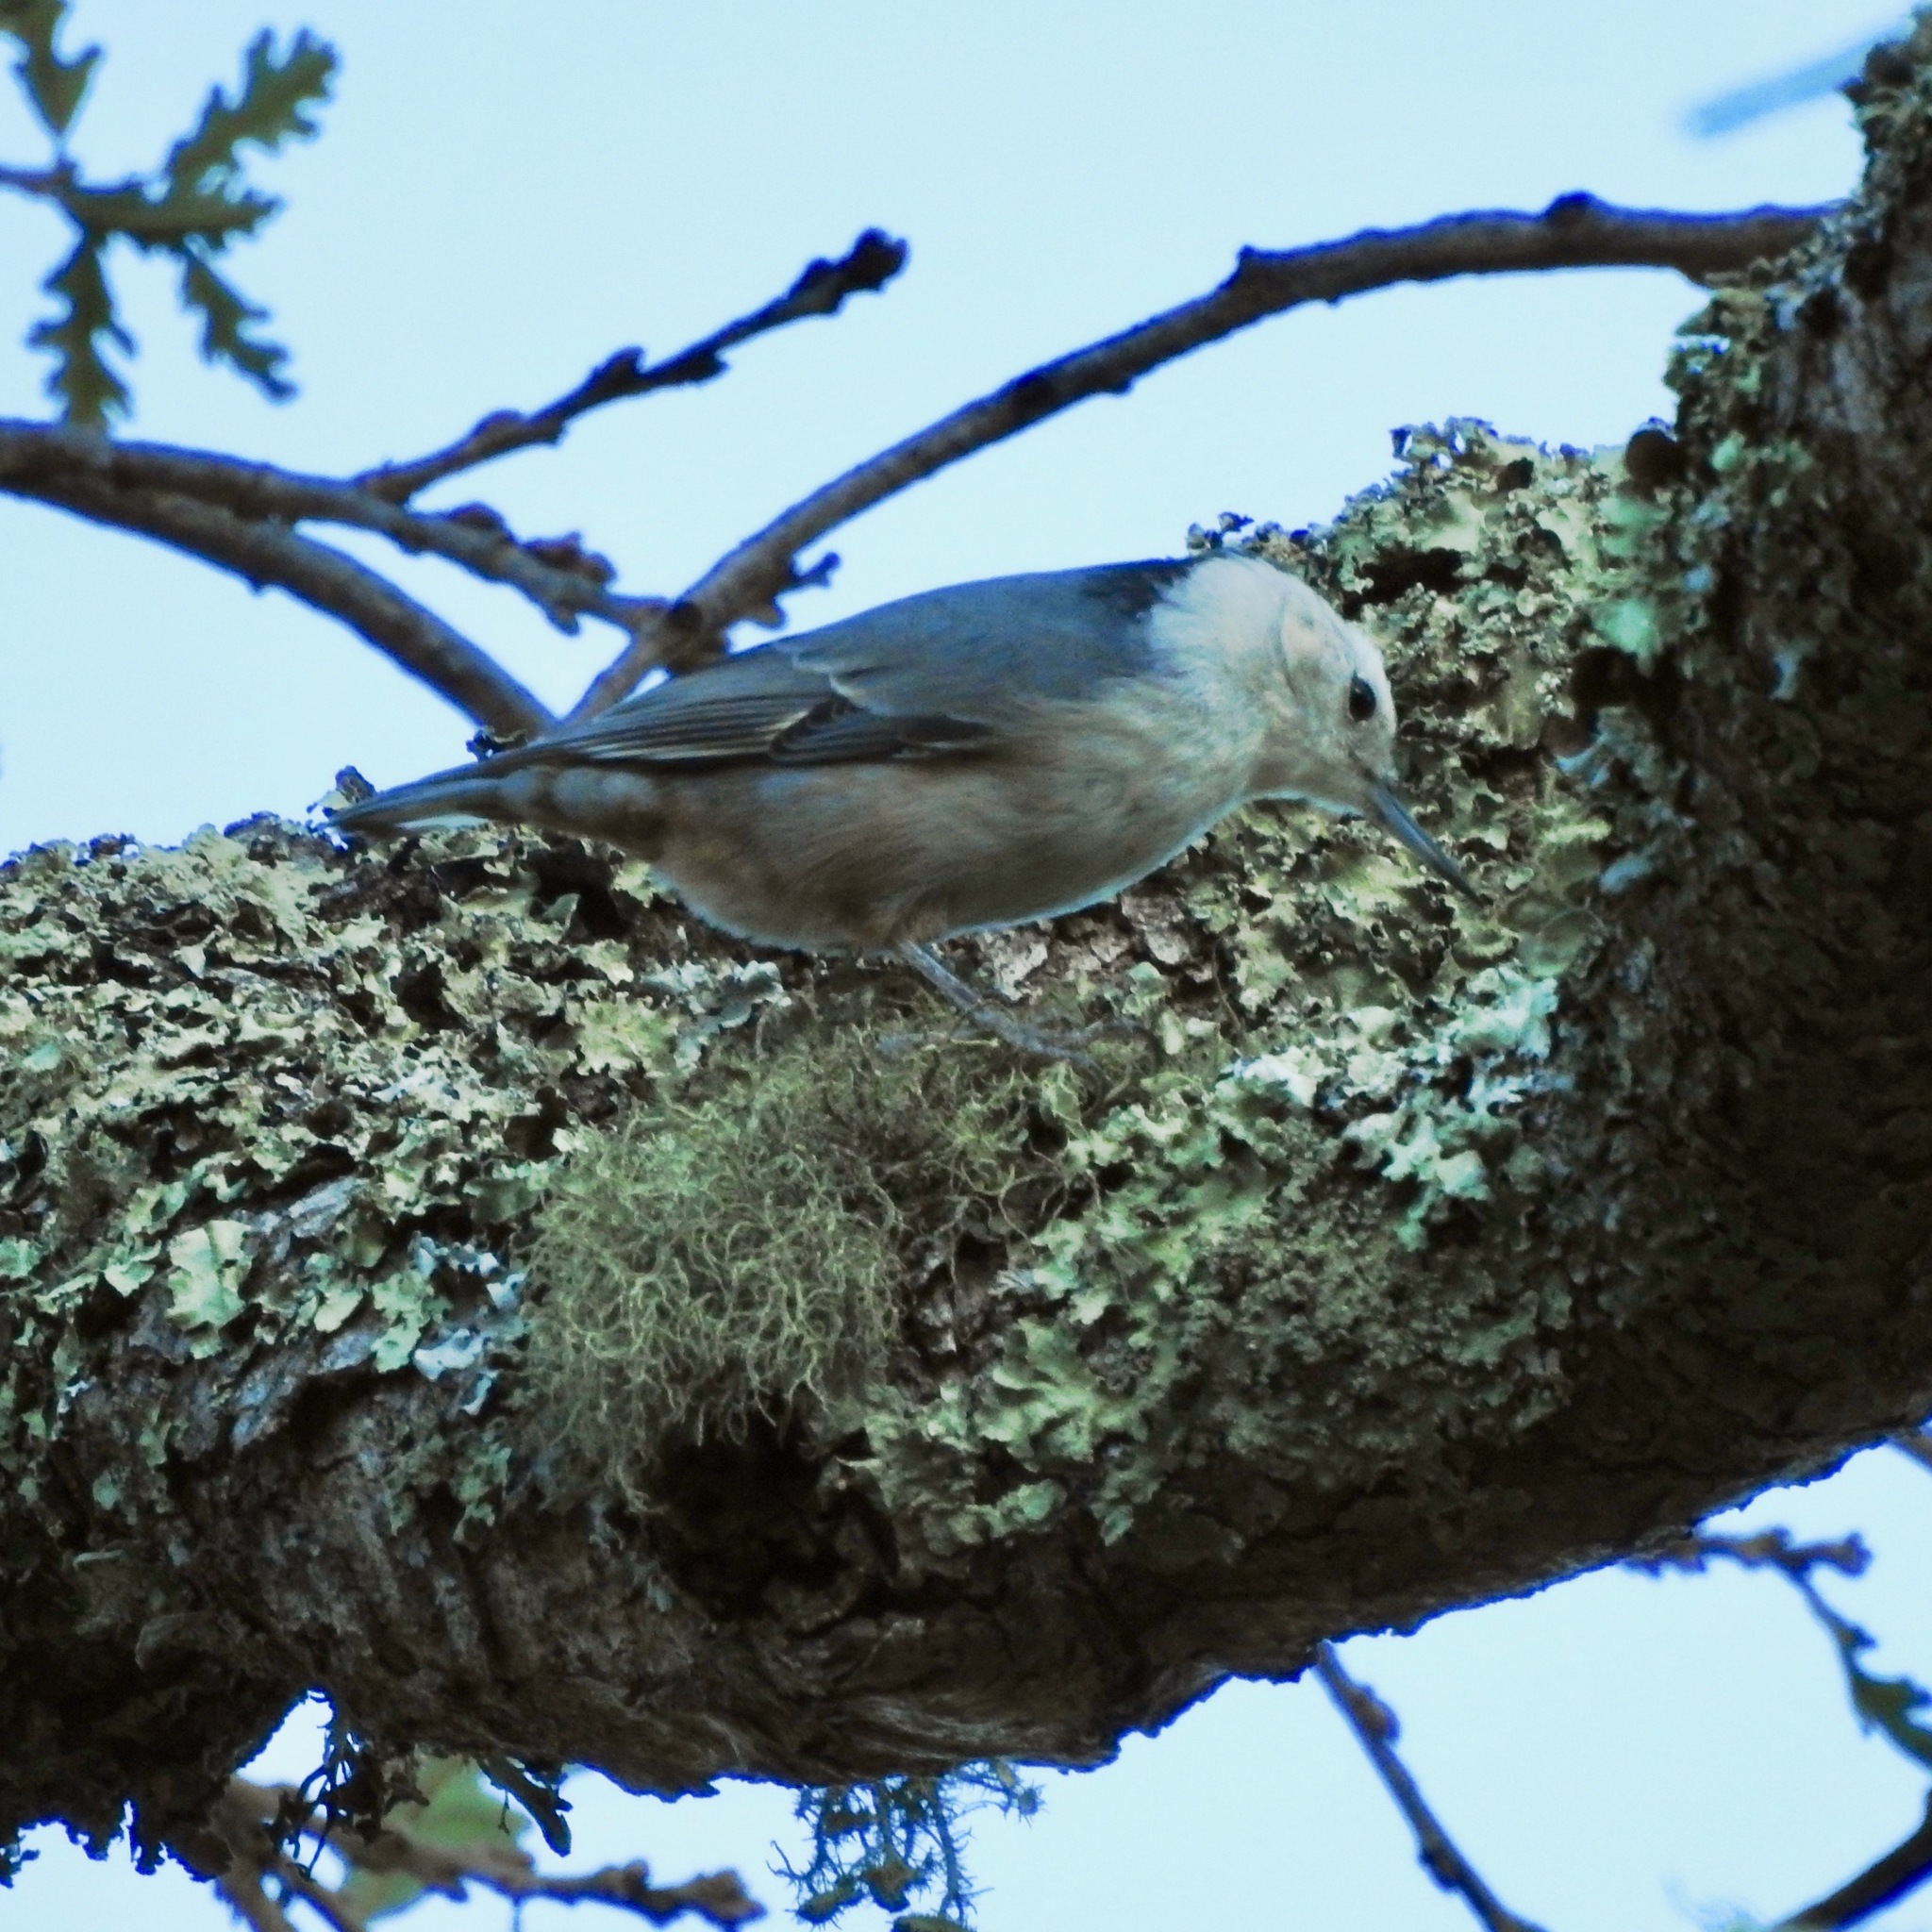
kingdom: Animalia
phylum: Chordata
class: Aves
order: Passeriformes
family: Sittidae
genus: Sitta
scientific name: Sitta carolinensis
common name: White-breasted nuthatch
